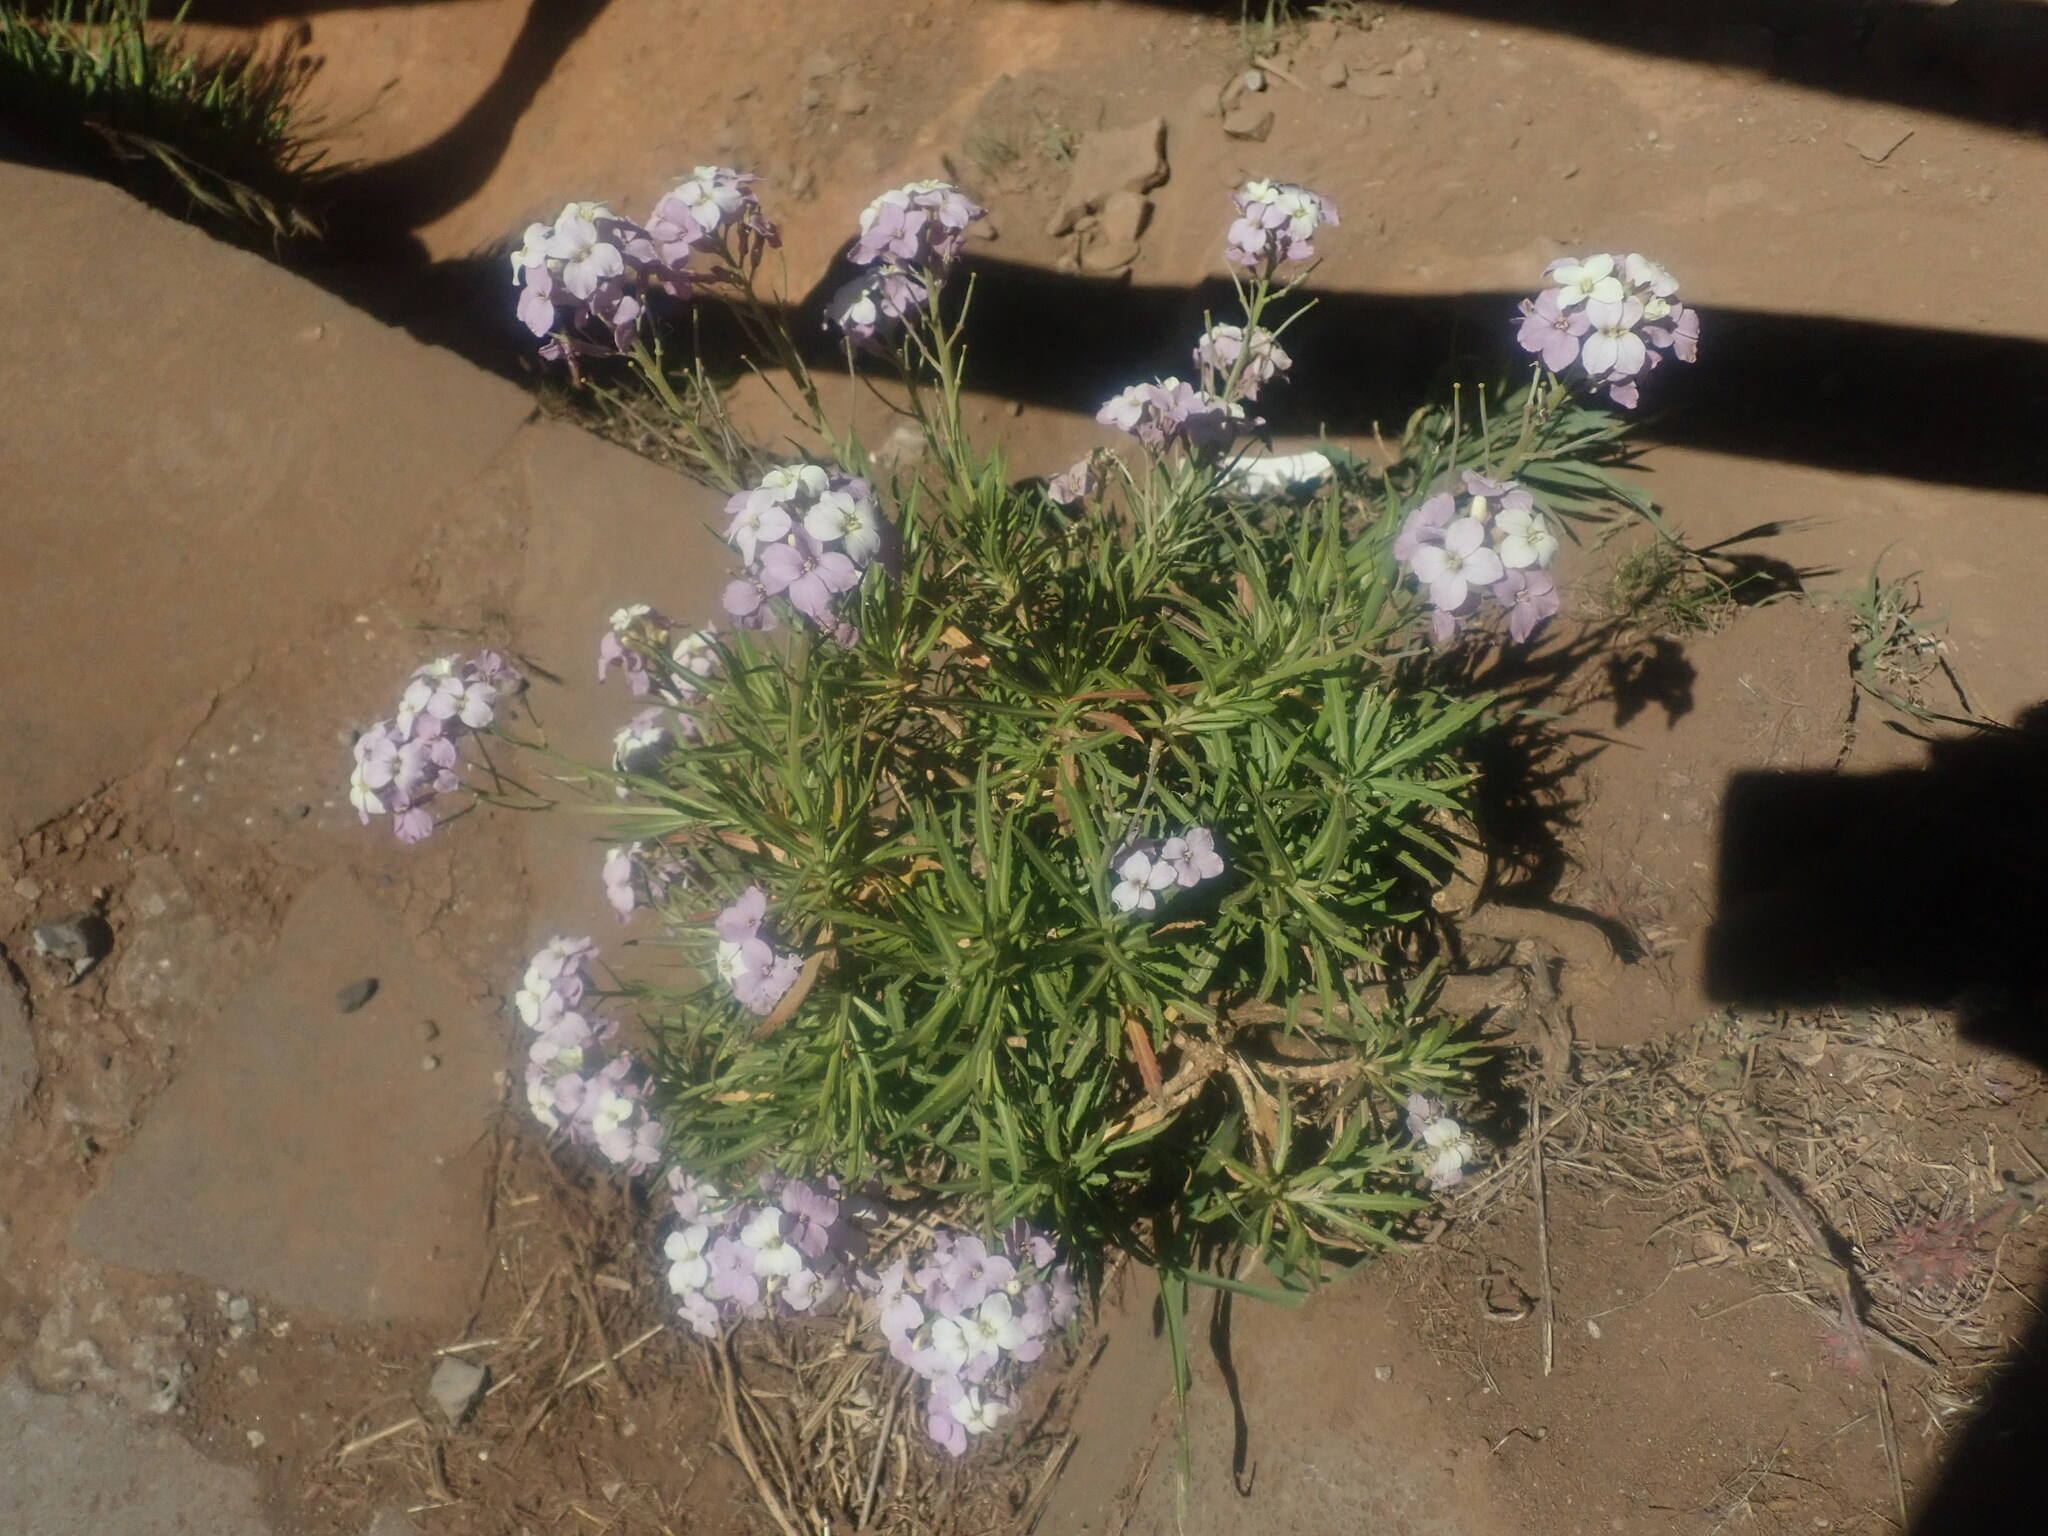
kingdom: Plantae
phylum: Tracheophyta
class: Magnoliopsida
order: Brassicales
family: Brassicaceae
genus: Erysimum
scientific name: Erysimum bicolor
